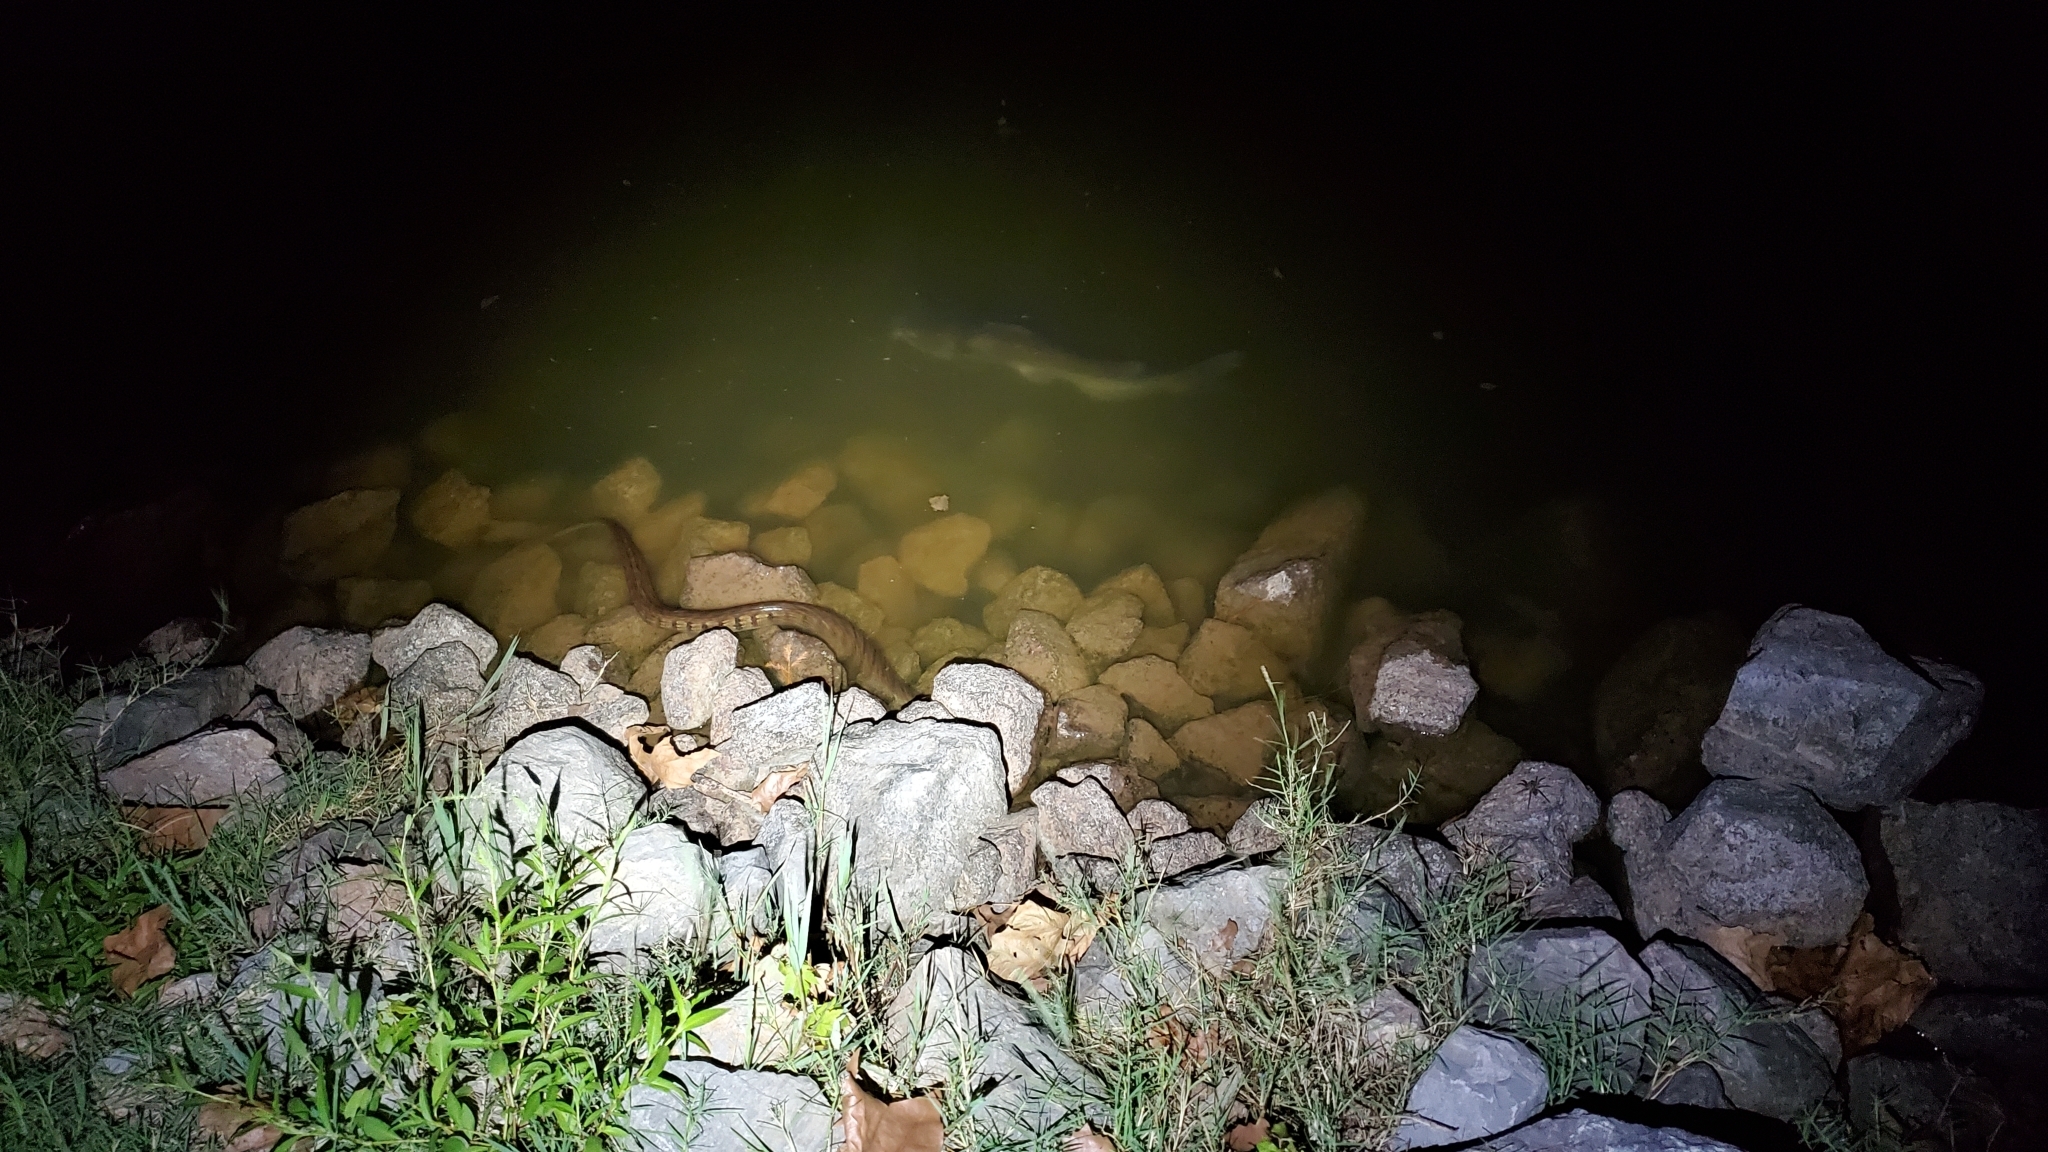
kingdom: Animalia
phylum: Chordata
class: Squamata
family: Colubridae
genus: Nerodia
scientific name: Nerodia rhombifer
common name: Diamondback water snake
